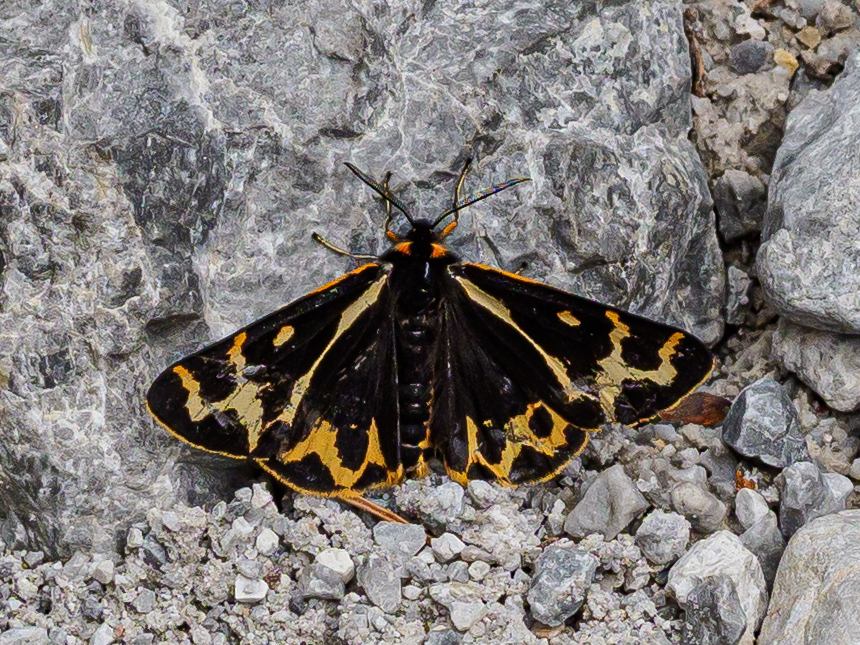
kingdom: Animalia
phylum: Arthropoda
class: Insecta
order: Lepidoptera
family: Erebidae
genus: Parasemia
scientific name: Parasemia plantaginis
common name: Wood tiger
